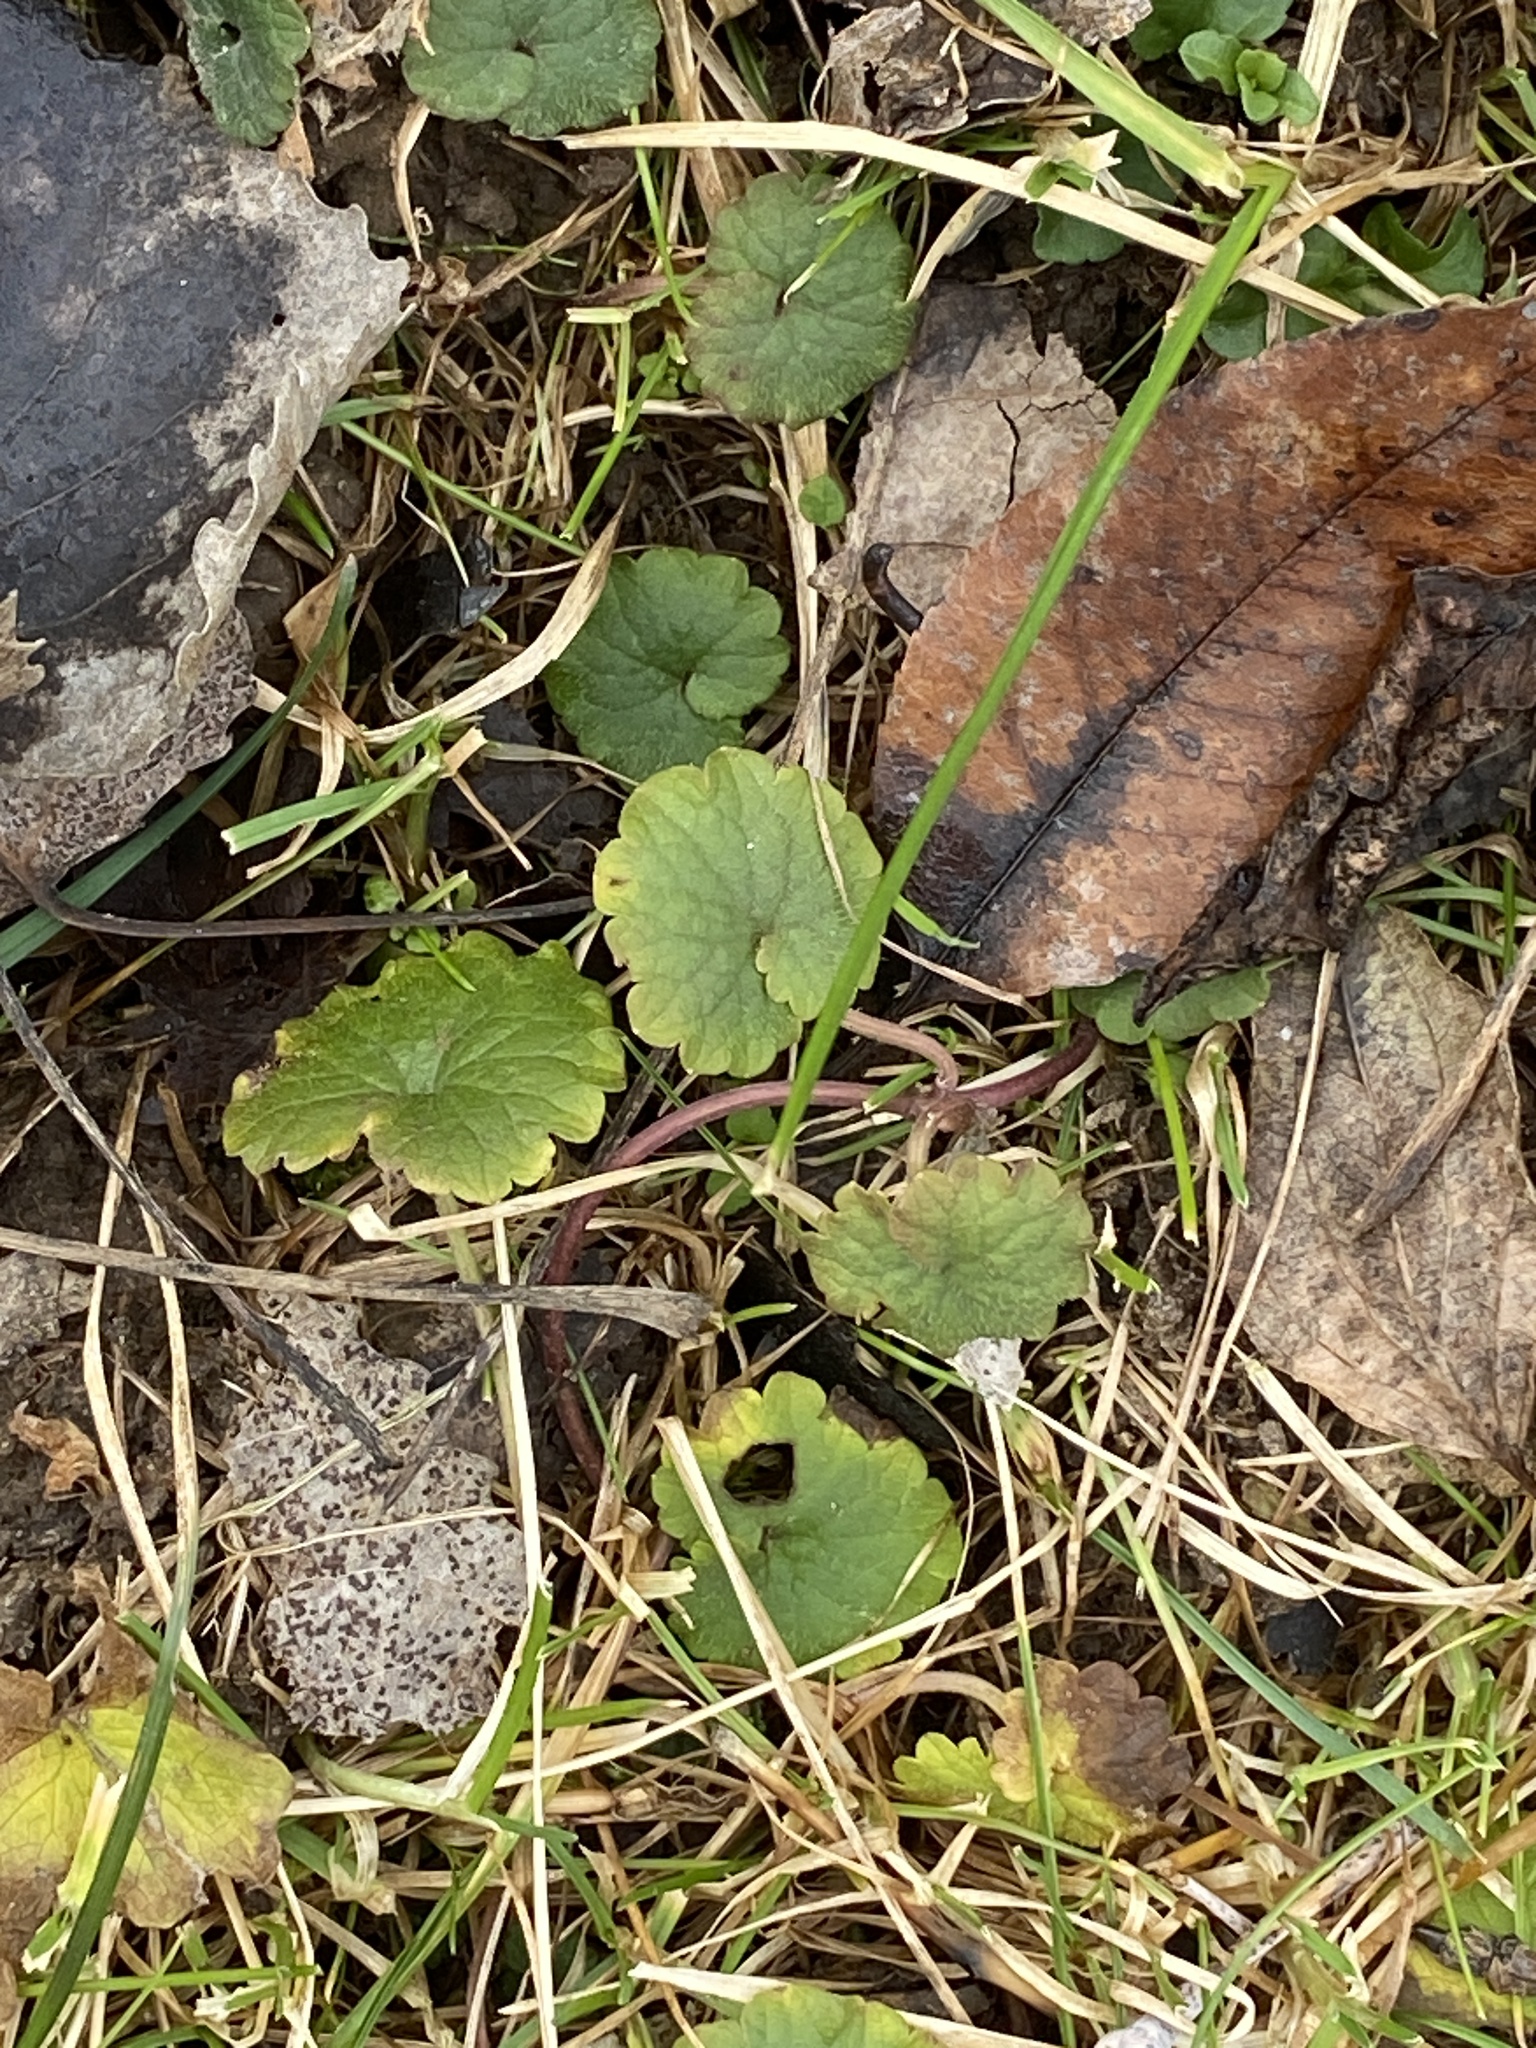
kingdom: Plantae
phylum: Tracheophyta
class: Magnoliopsida
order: Lamiales
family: Lamiaceae
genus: Glechoma
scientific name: Glechoma hederacea
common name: Ground ivy
